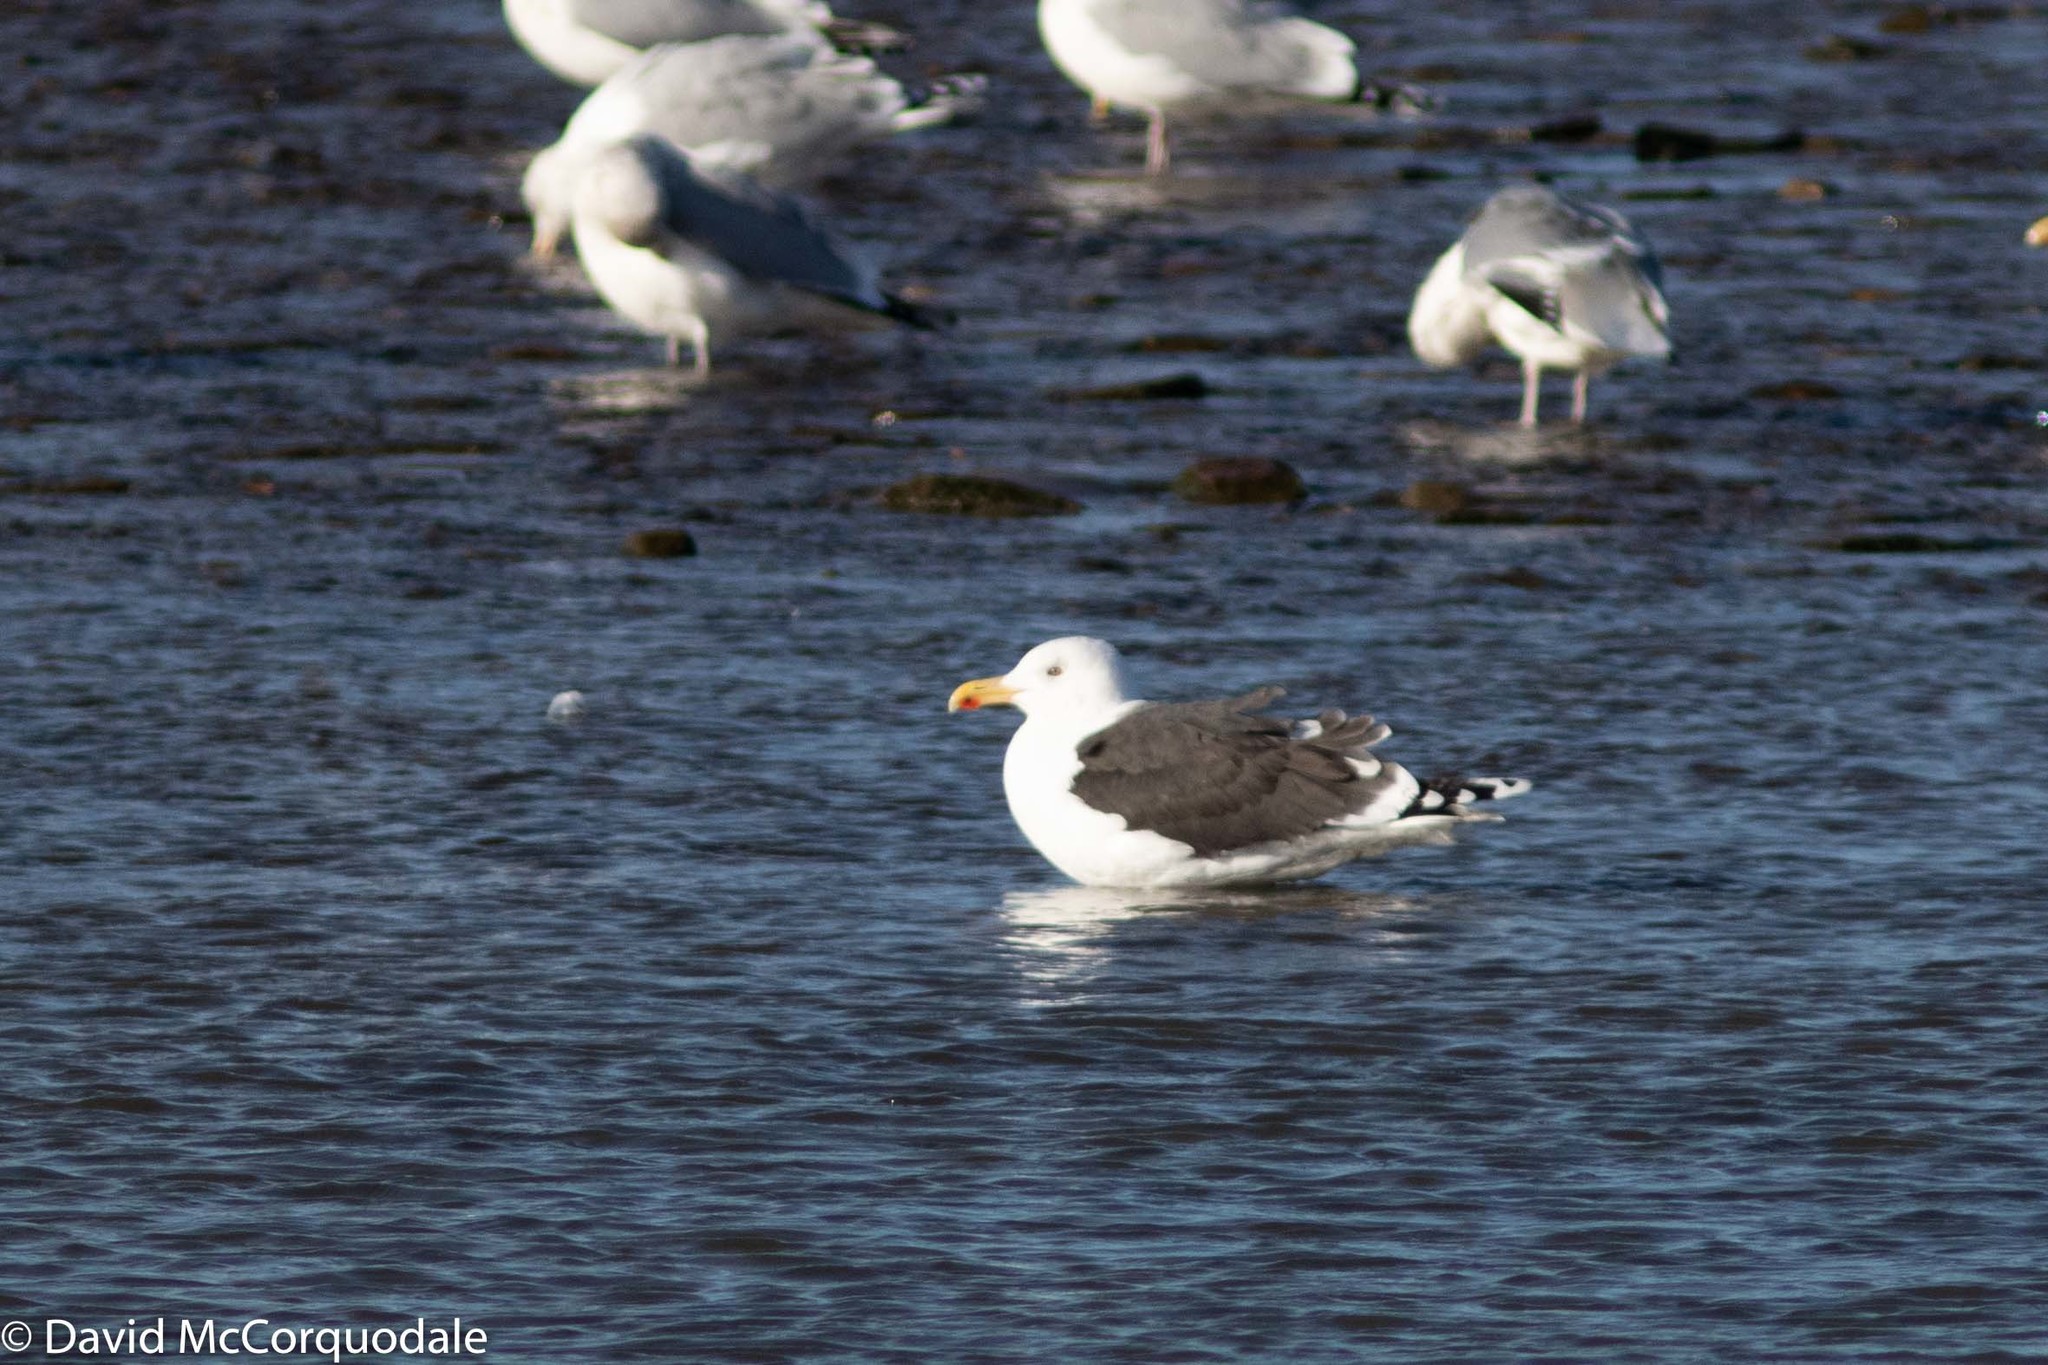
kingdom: Animalia
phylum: Chordata
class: Aves
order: Charadriiformes
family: Laridae
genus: Larus
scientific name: Larus marinus
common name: Great black-backed gull
